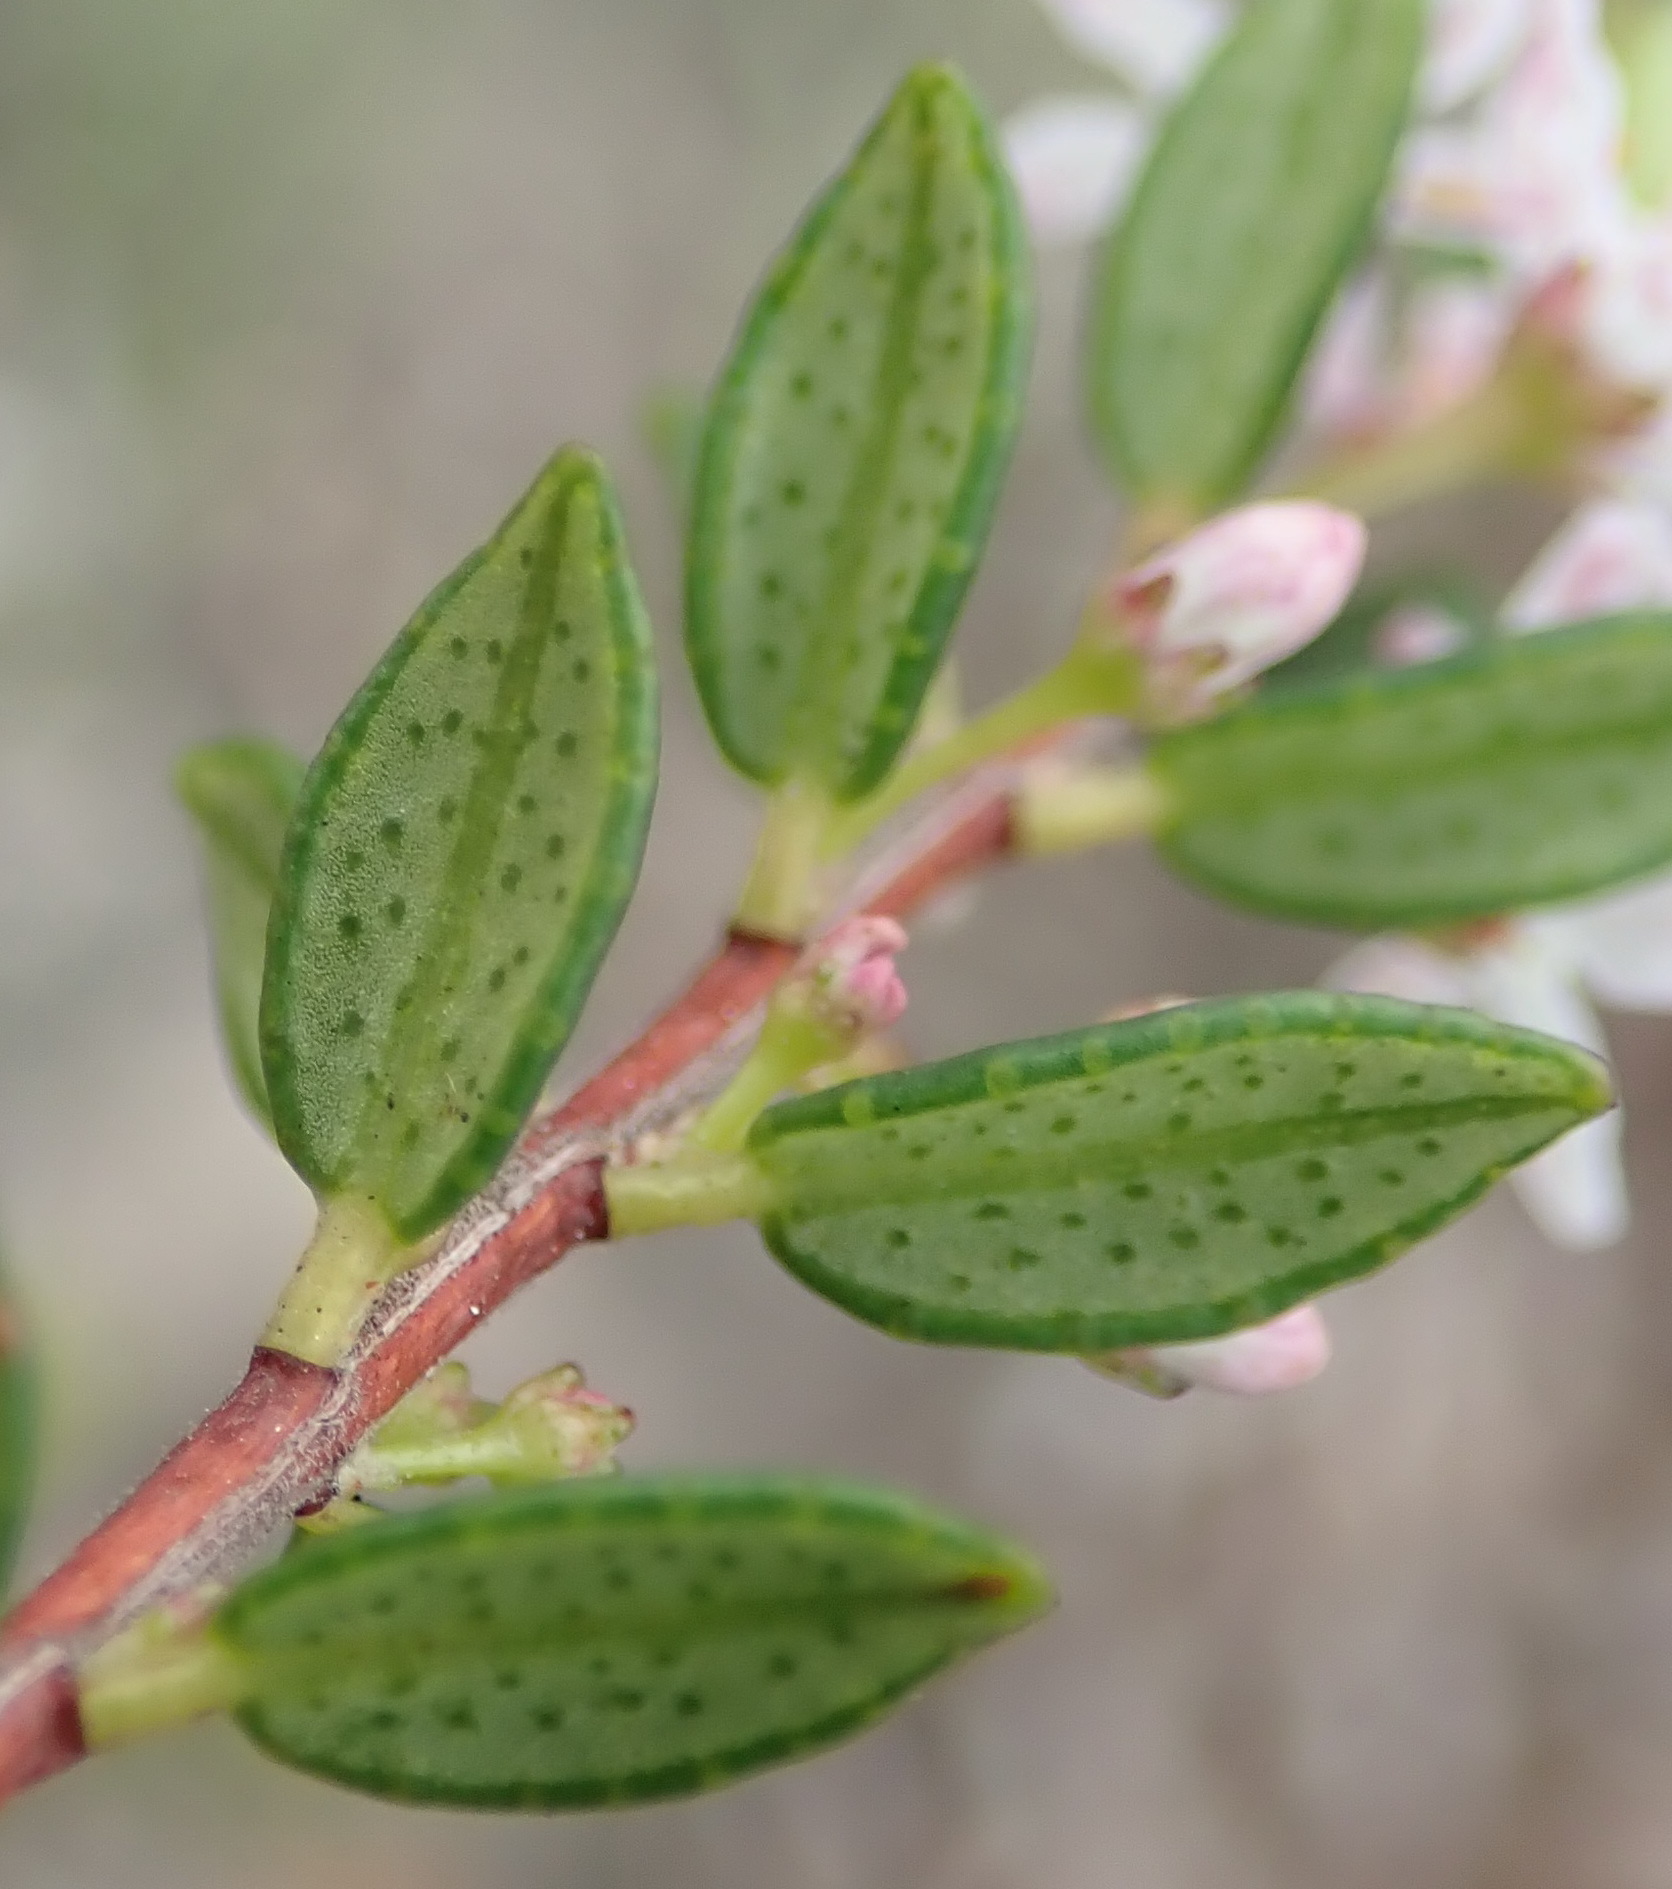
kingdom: Plantae
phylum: Tracheophyta
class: Magnoliopsida
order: Sapindales
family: Rutaceae
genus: Agathosma
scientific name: Agathosma ovata
